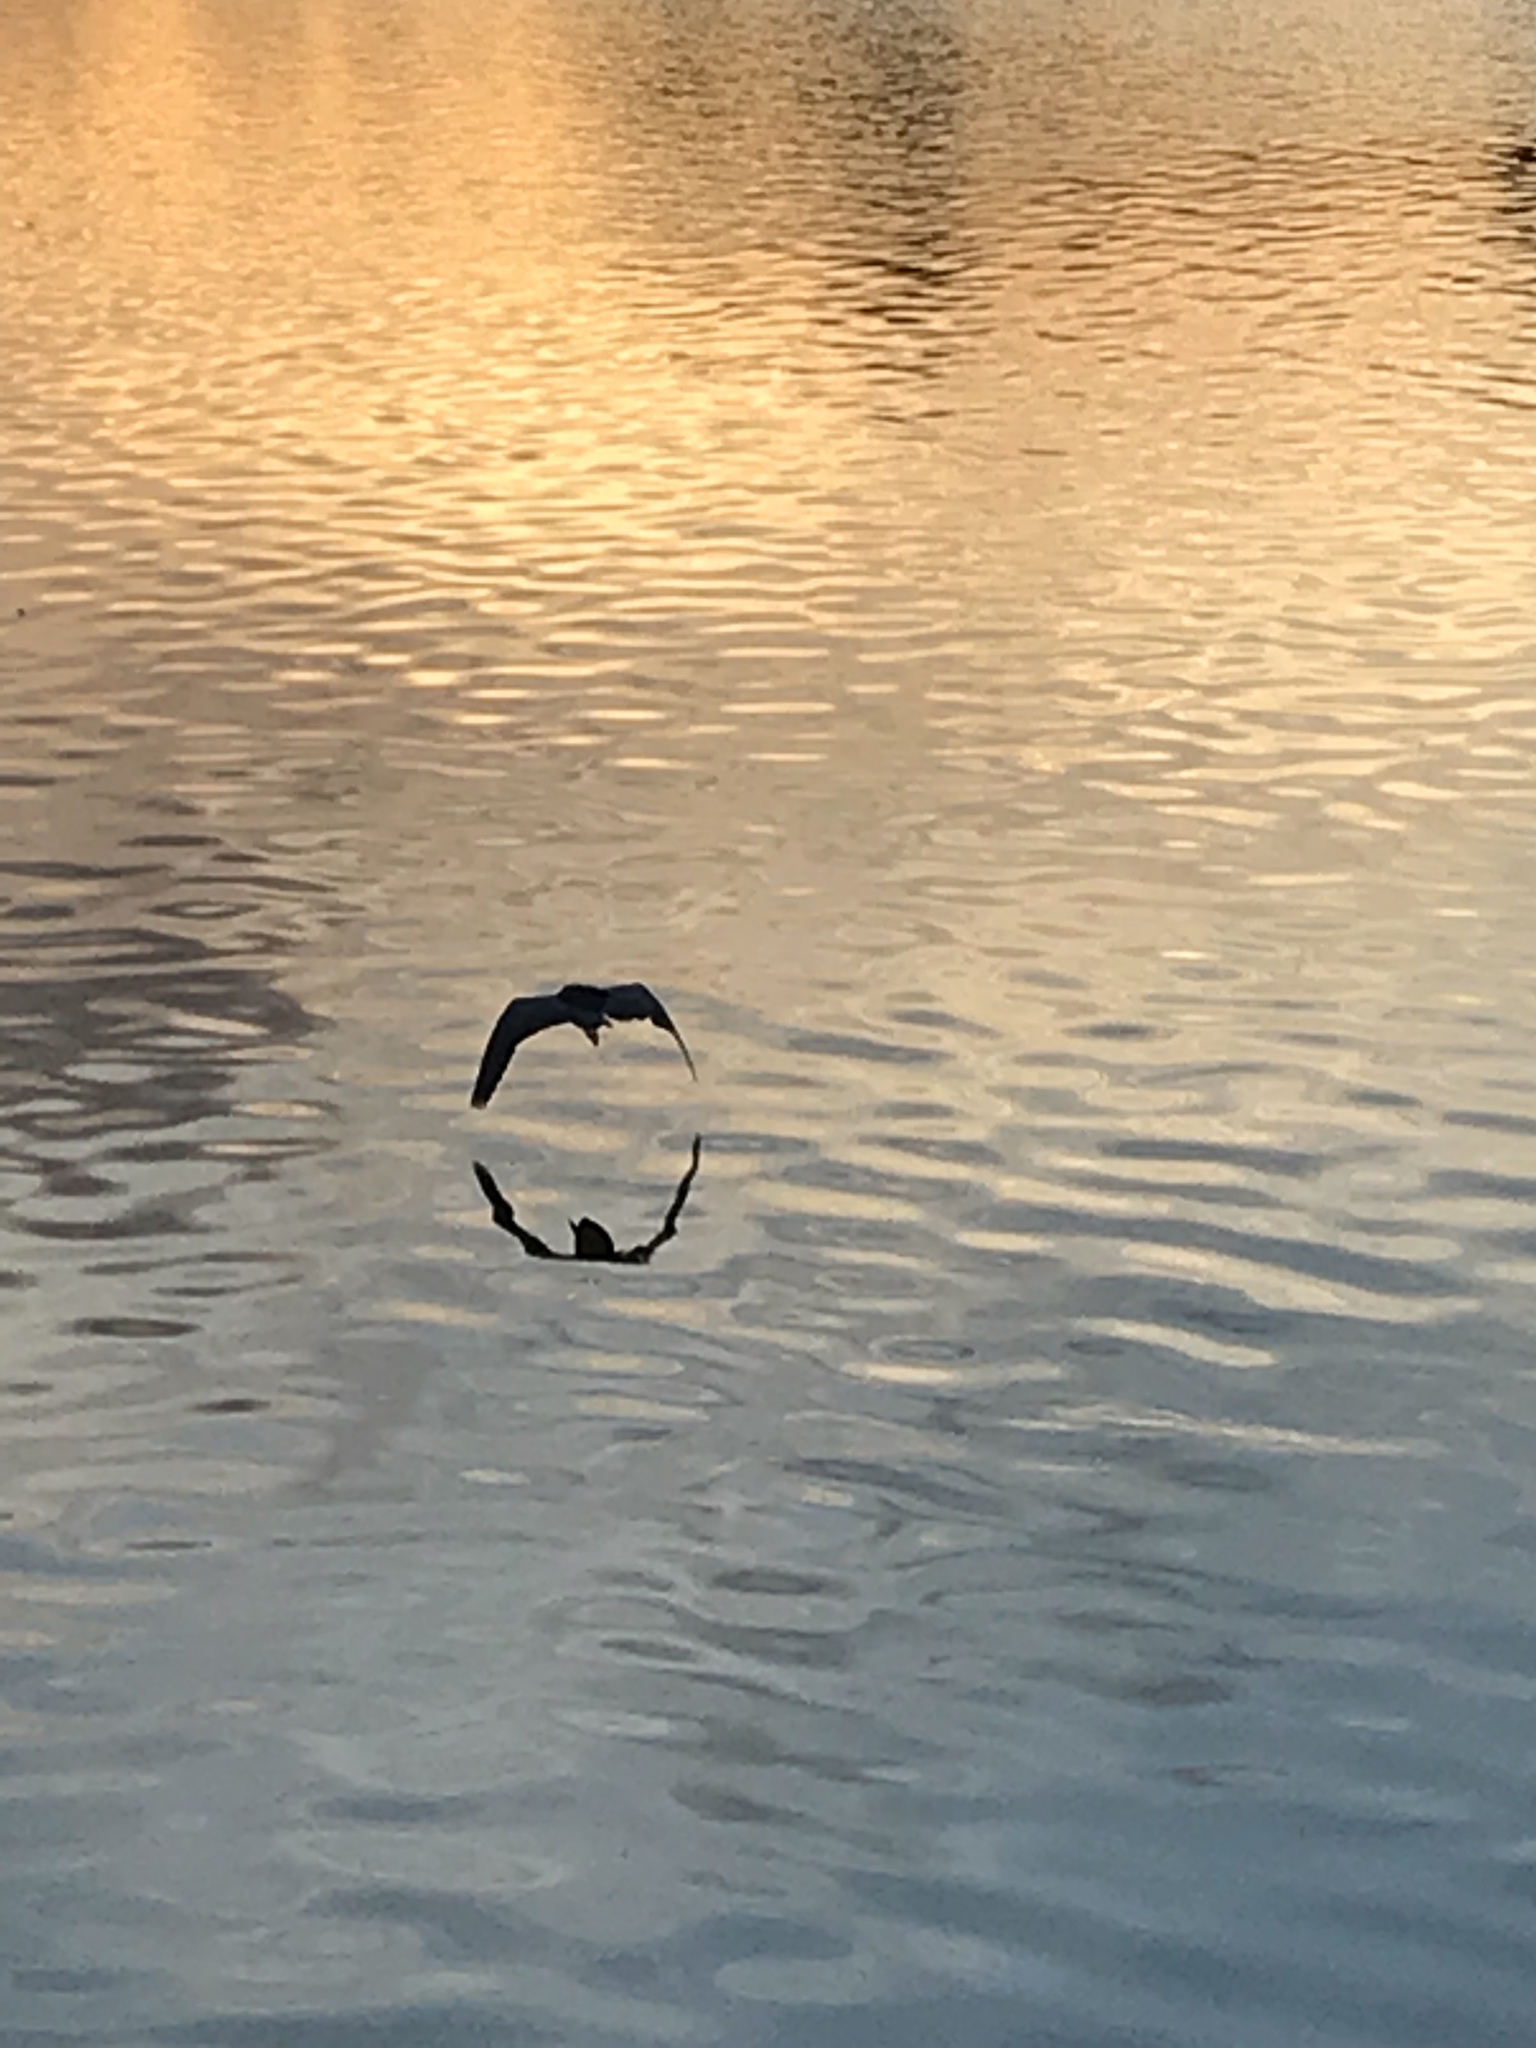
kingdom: Animalia
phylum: Chordata
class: Aves
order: Pelecaniformes
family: Ardeidae
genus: Nycticorax
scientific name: Nycticorax nycticorax
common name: Black-crowned night heron
